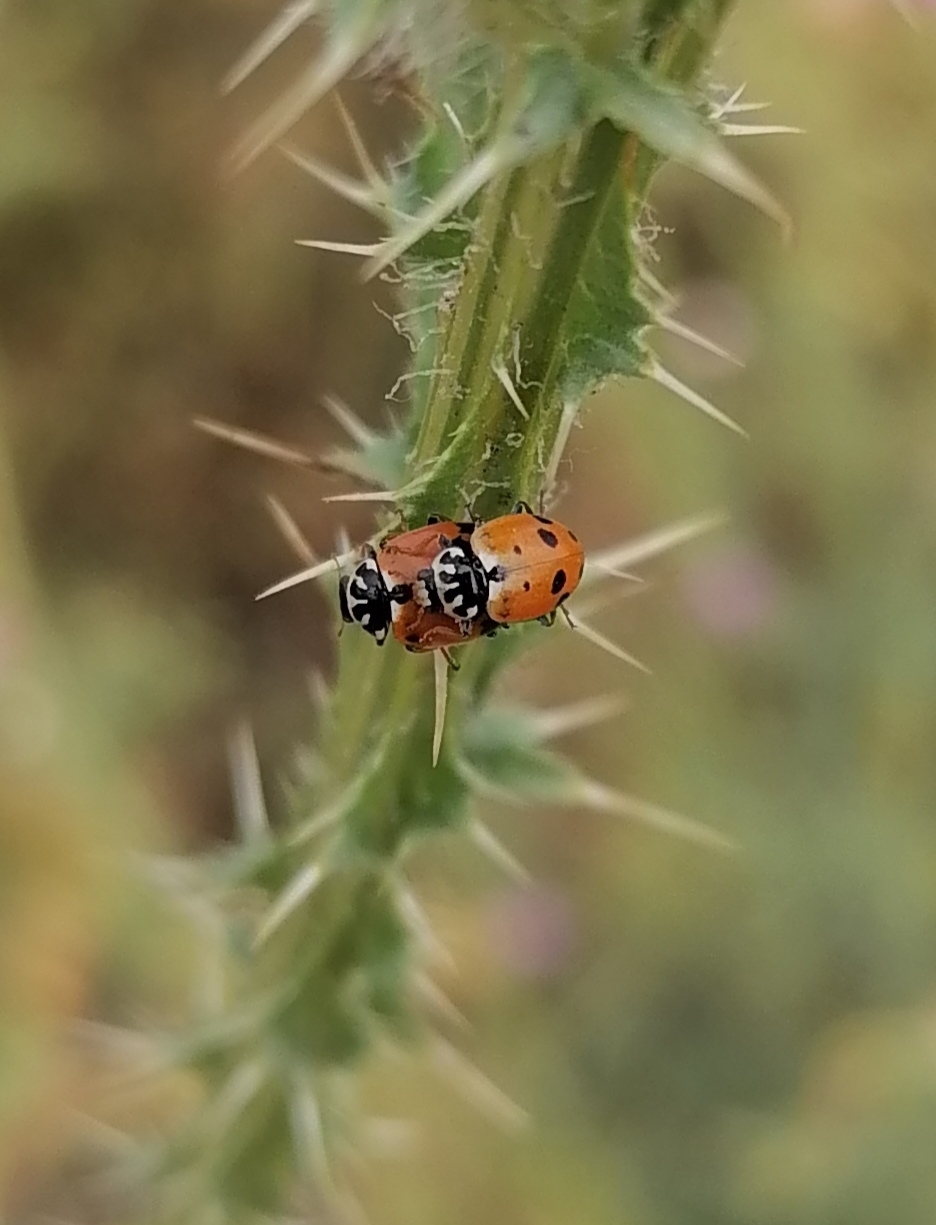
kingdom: Animalia
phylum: Arthropoda
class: Insecta
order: Coleoptera
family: Coccinellidae
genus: Hippodamia
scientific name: Hippodamia variegata
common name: Ladybird beetle
